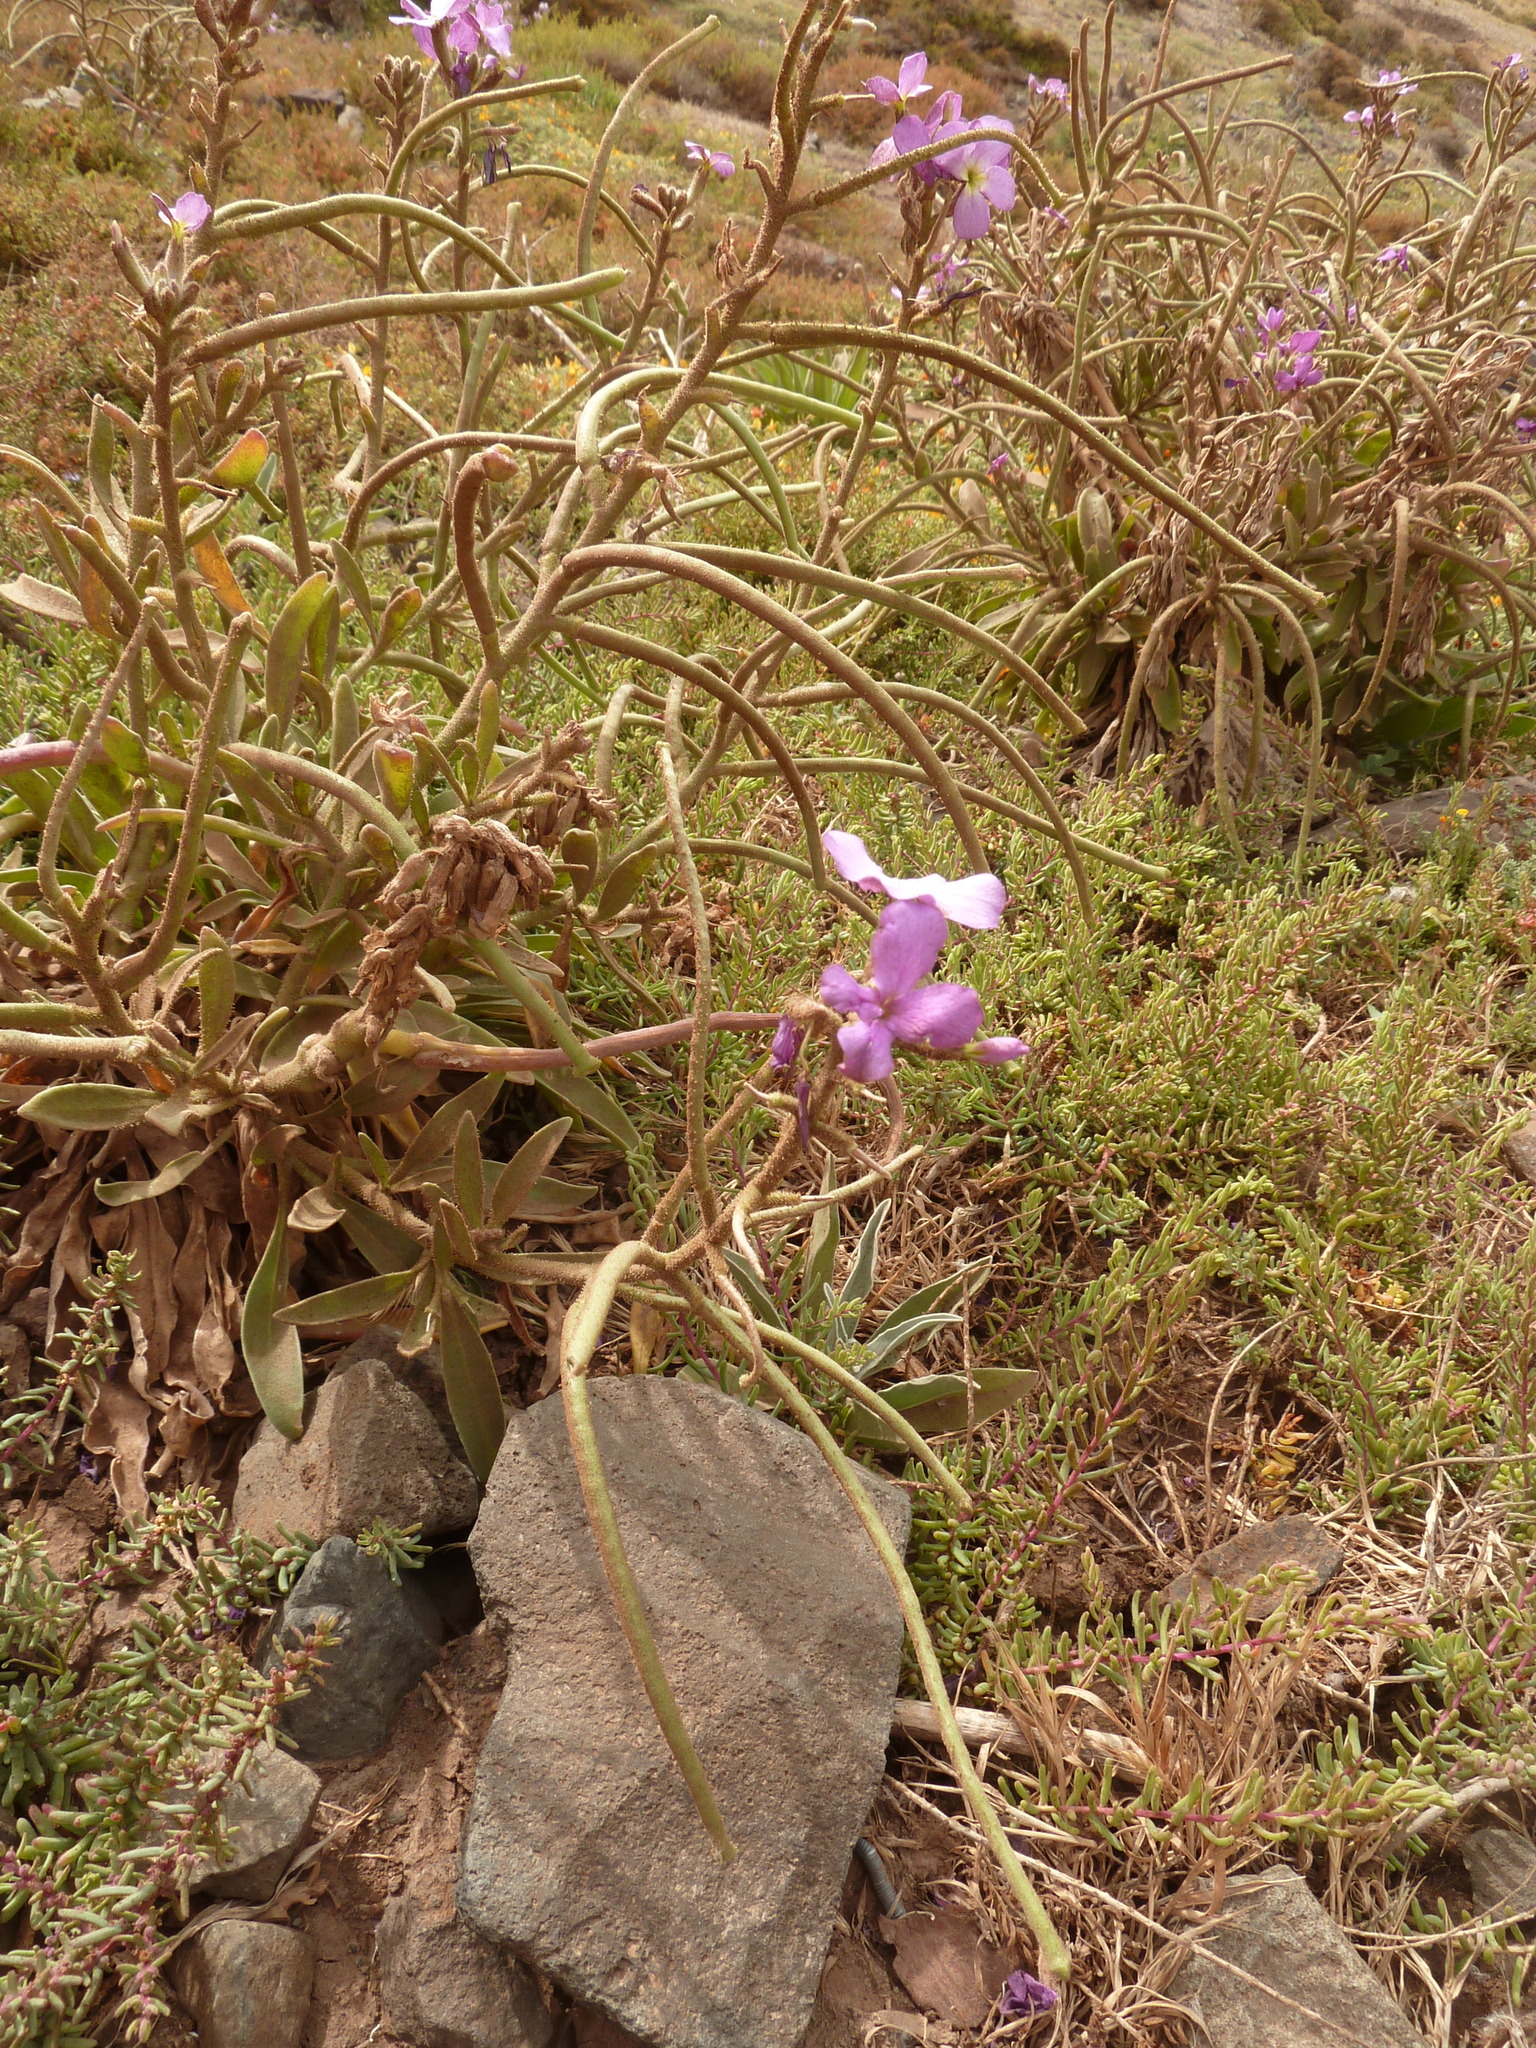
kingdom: Plantae
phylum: Tracheophyta
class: Magnoliopsida
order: Brassicales
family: Brassicaceae
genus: Matthiola
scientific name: Matthiola maderensis
